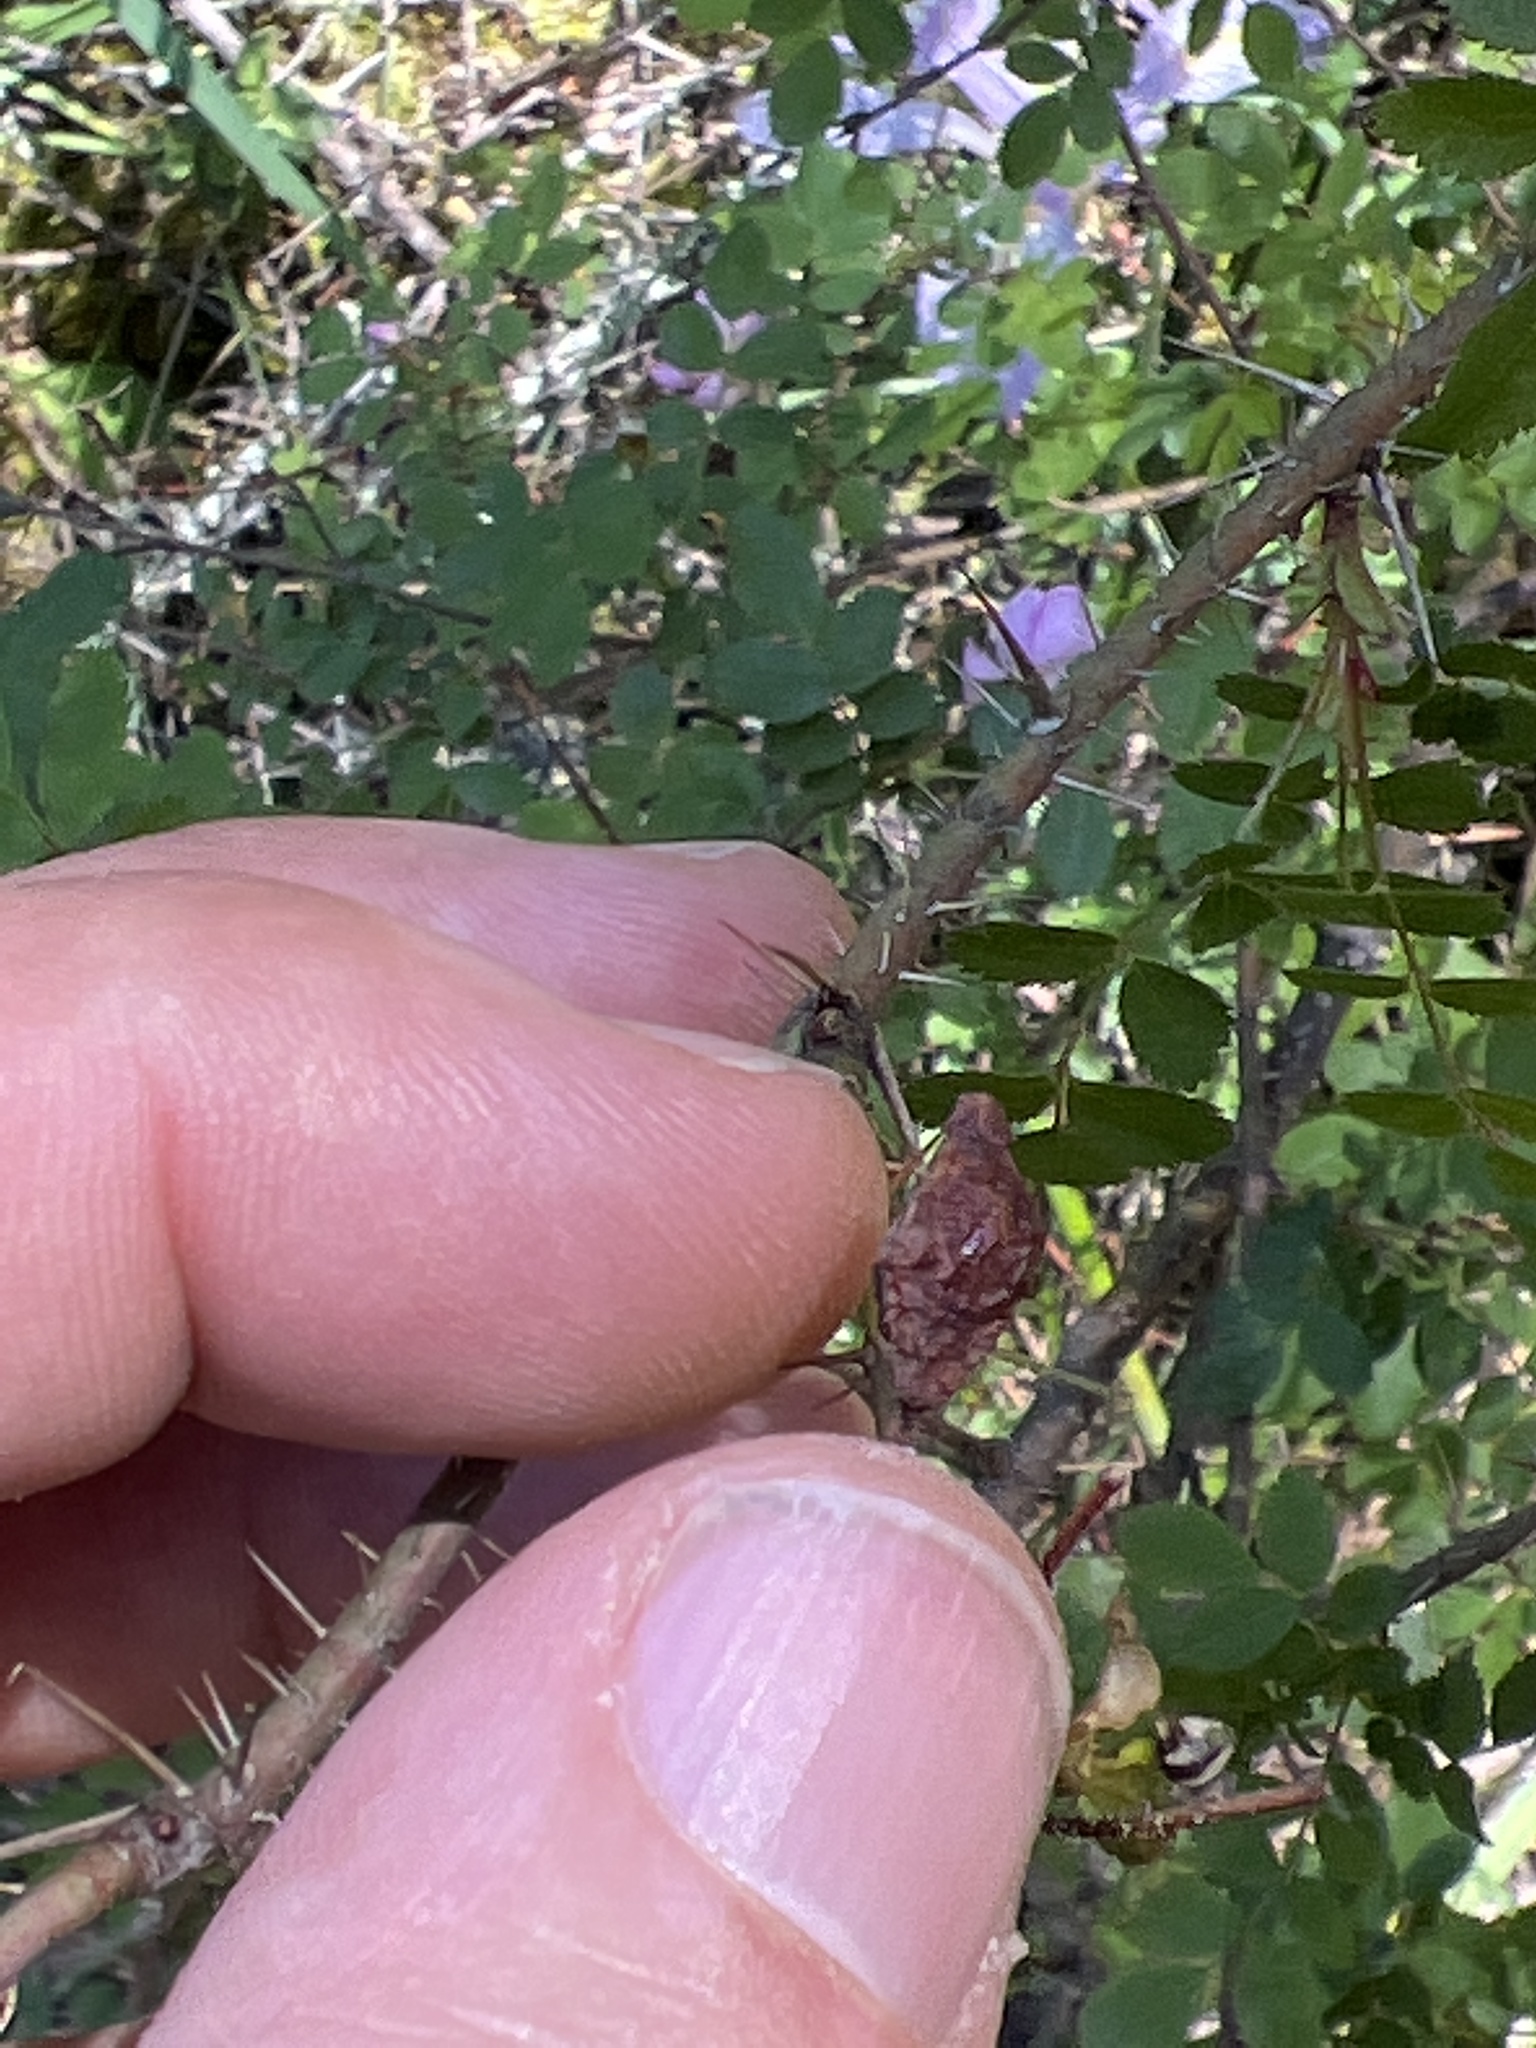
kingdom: Plantae
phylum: Tracheophyta
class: Magnoliopsida
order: Rosales
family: Rosaceae
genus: Rosa
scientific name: Rosa gymnocarpa
